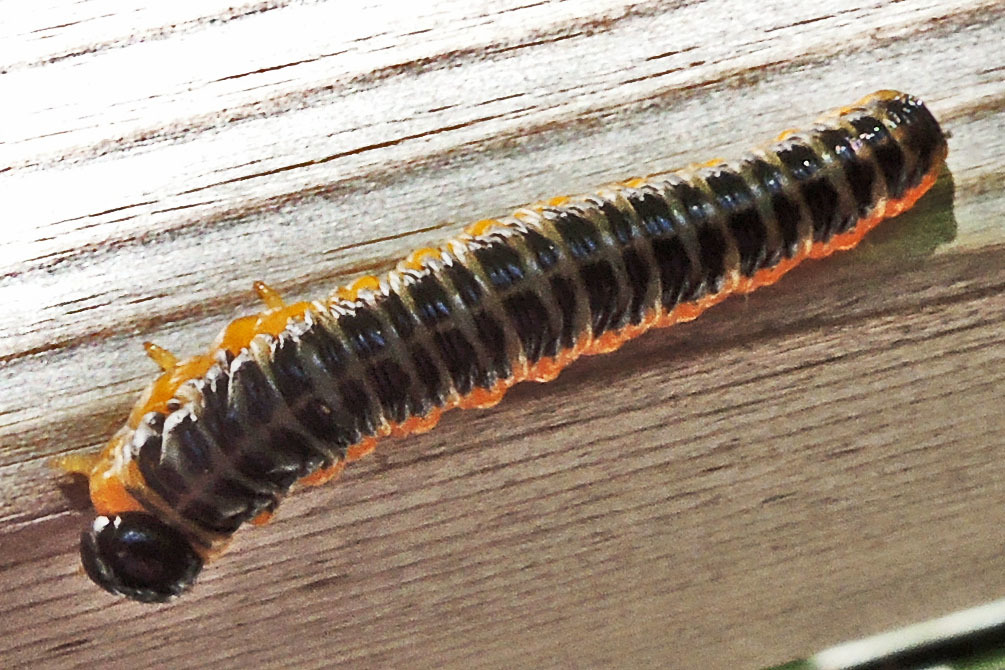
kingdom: Animalia
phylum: Arthropoda
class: Insecta
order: Hymenoptera
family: Tenthredinidae
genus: Macremphytus
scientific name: Macremphytus
